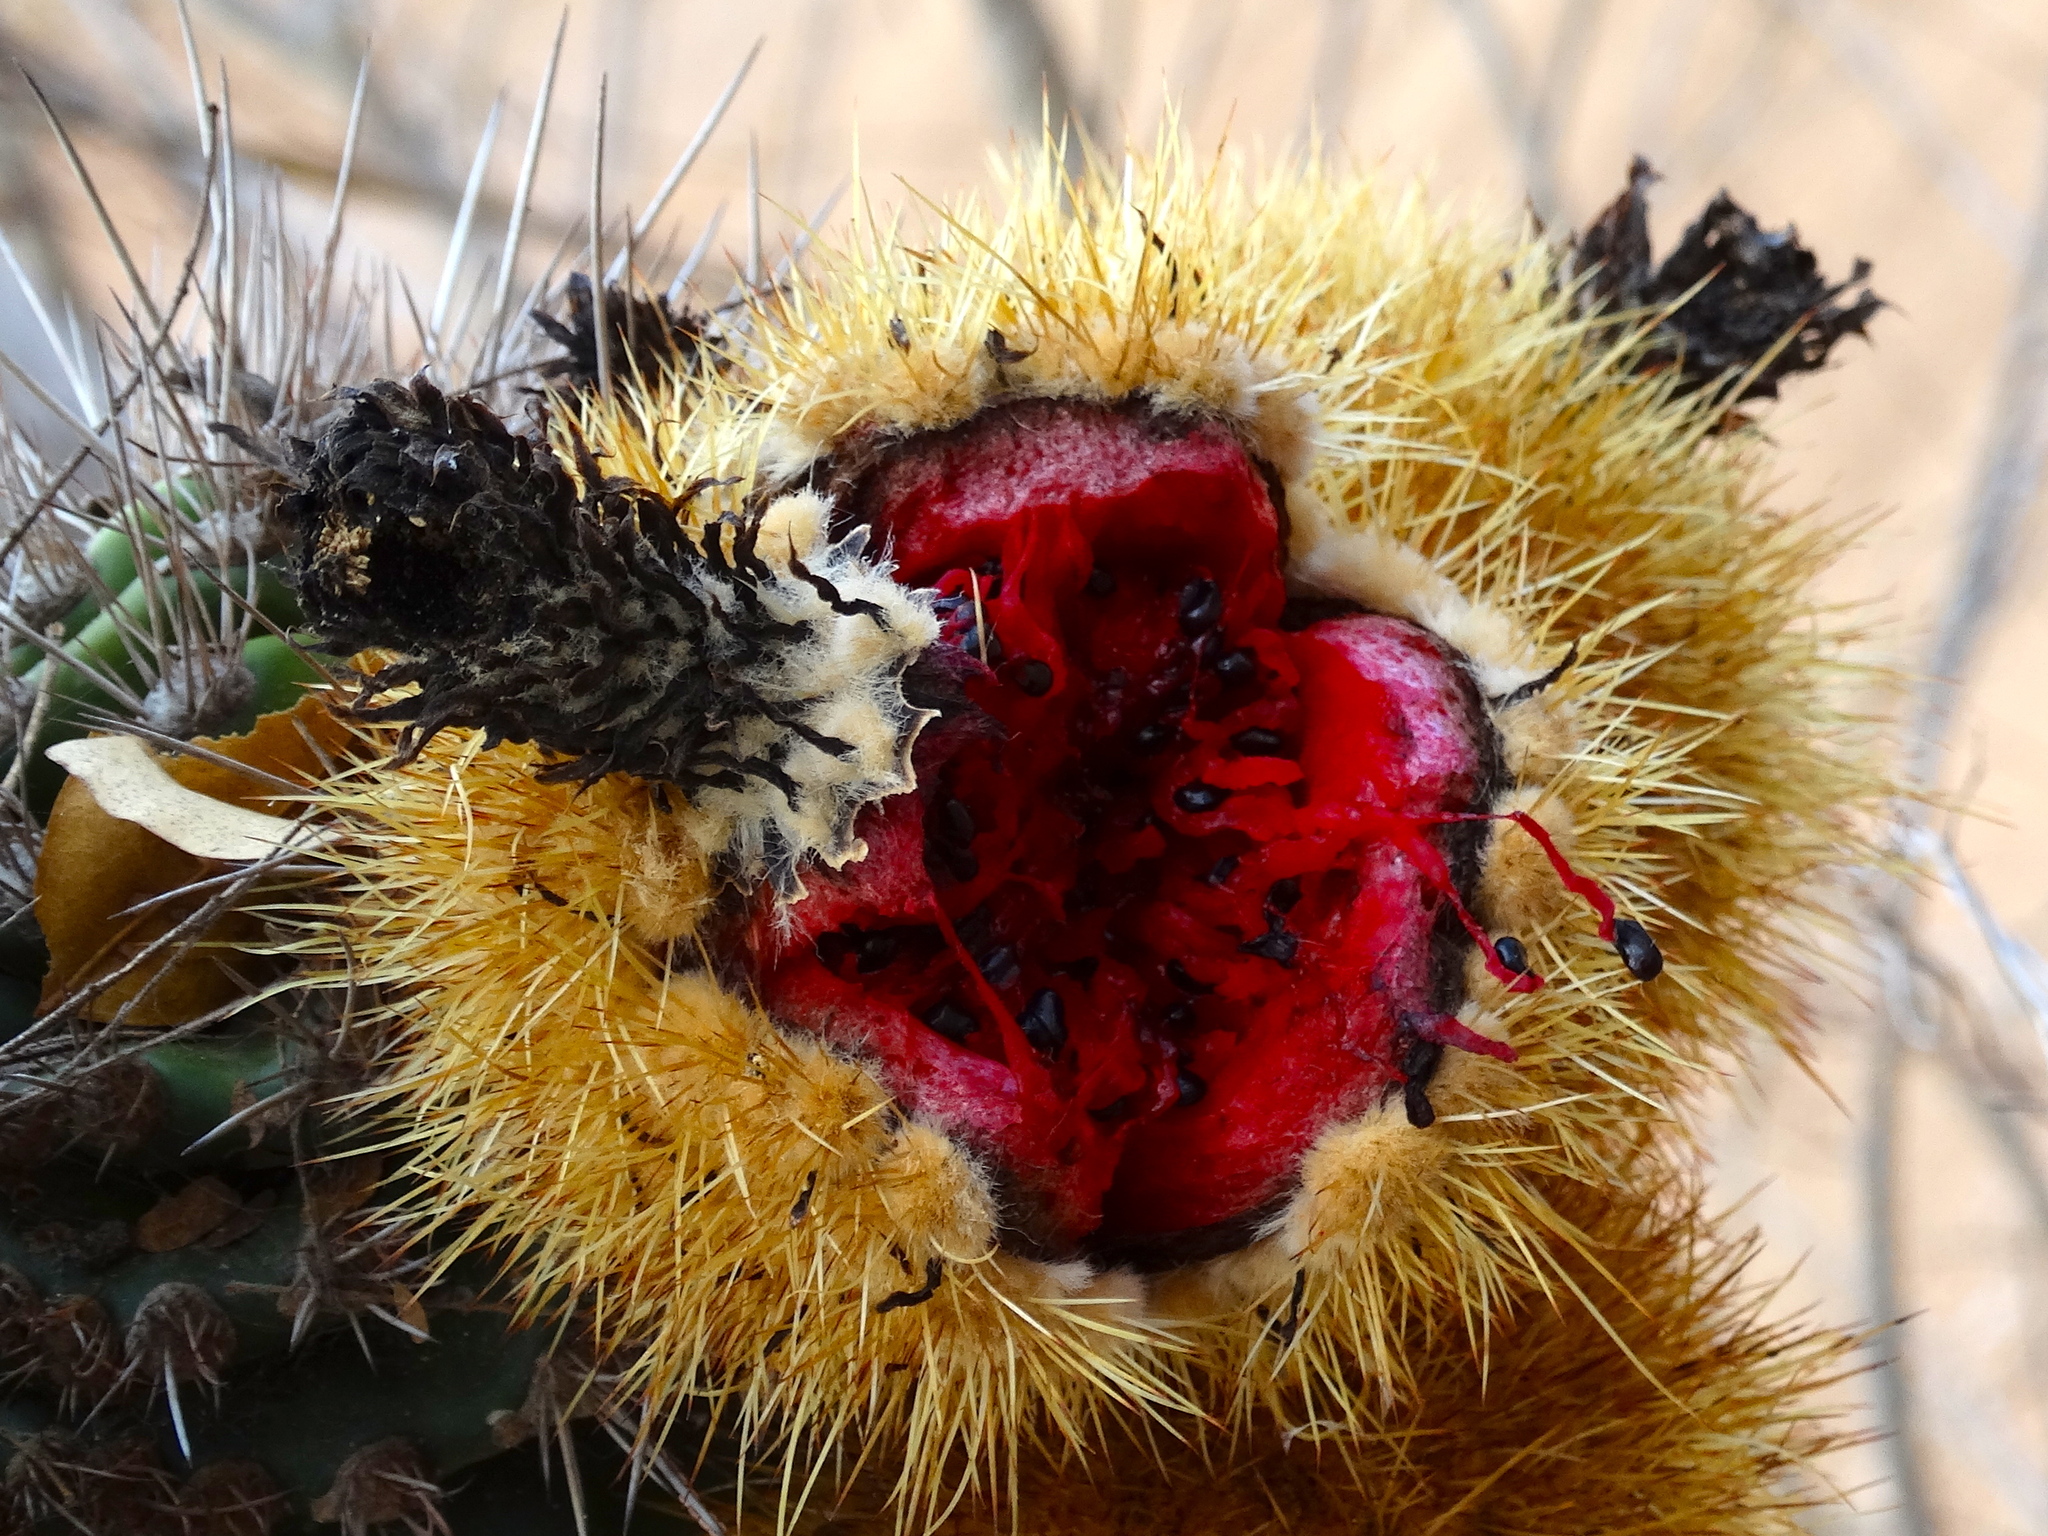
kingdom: Plantae
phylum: Tracheophyta
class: Magnoliopsida
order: Caryophyllales
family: Cactaceae
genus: Pachycereus
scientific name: Pachycereus pecten-aboriginum
